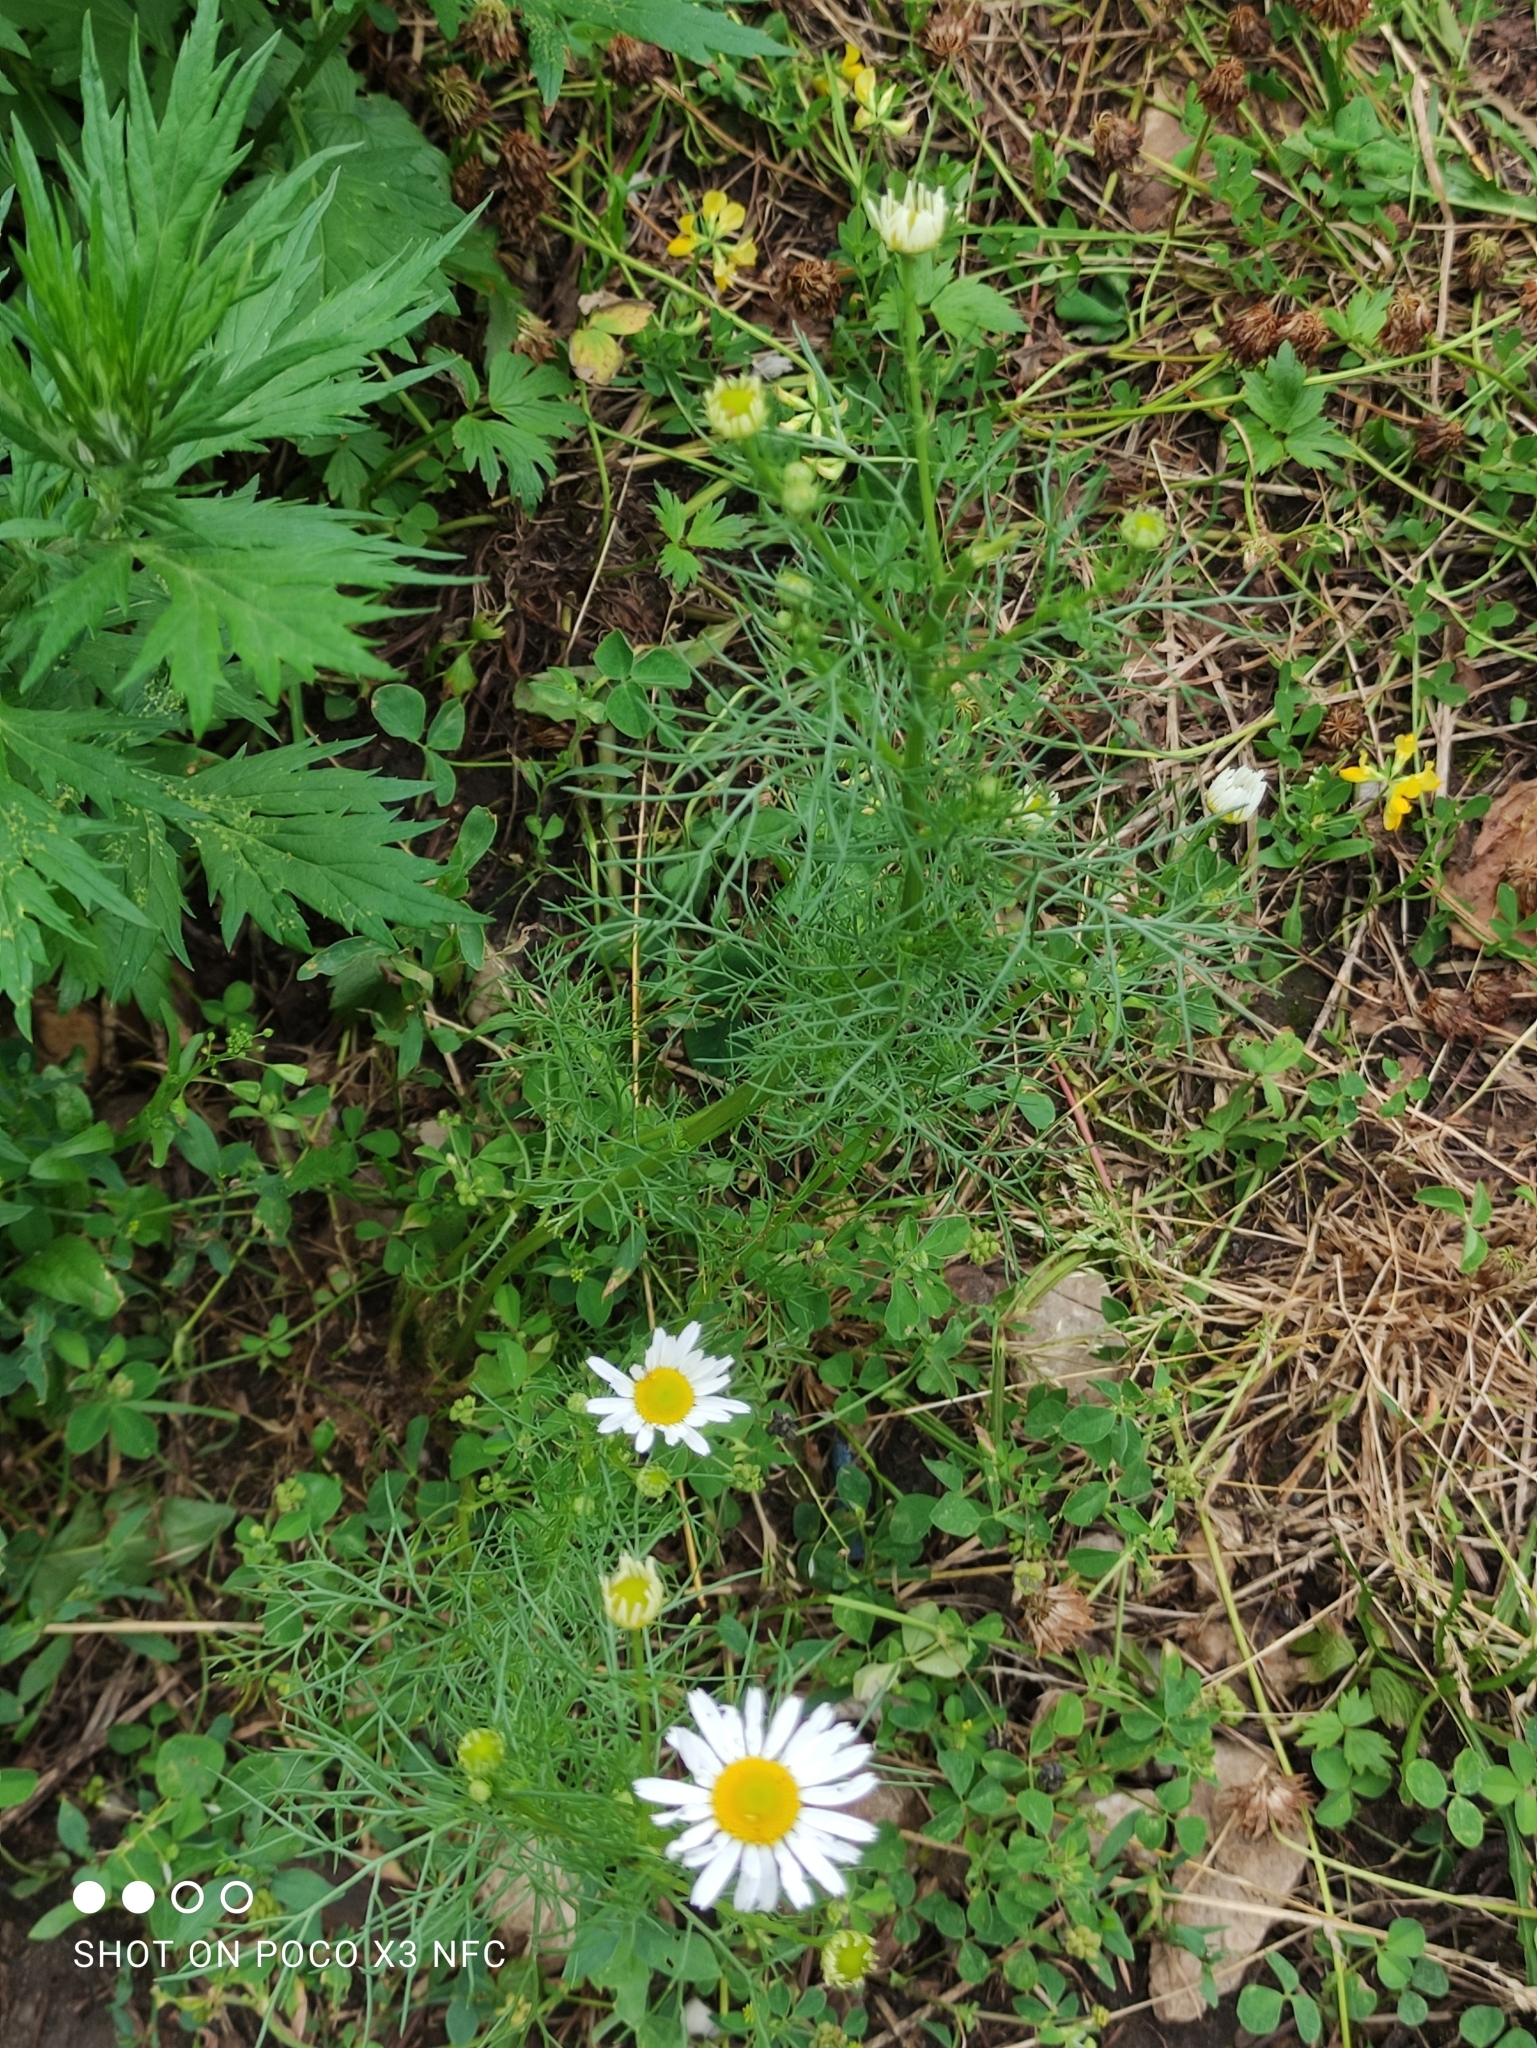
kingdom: Plantae
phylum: Tracheophyta
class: Magnoliopsida
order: Asterales
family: Asteraceae
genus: Tripleurospermum
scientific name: Tripleurospermum inodorum
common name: Scentless mayweed
